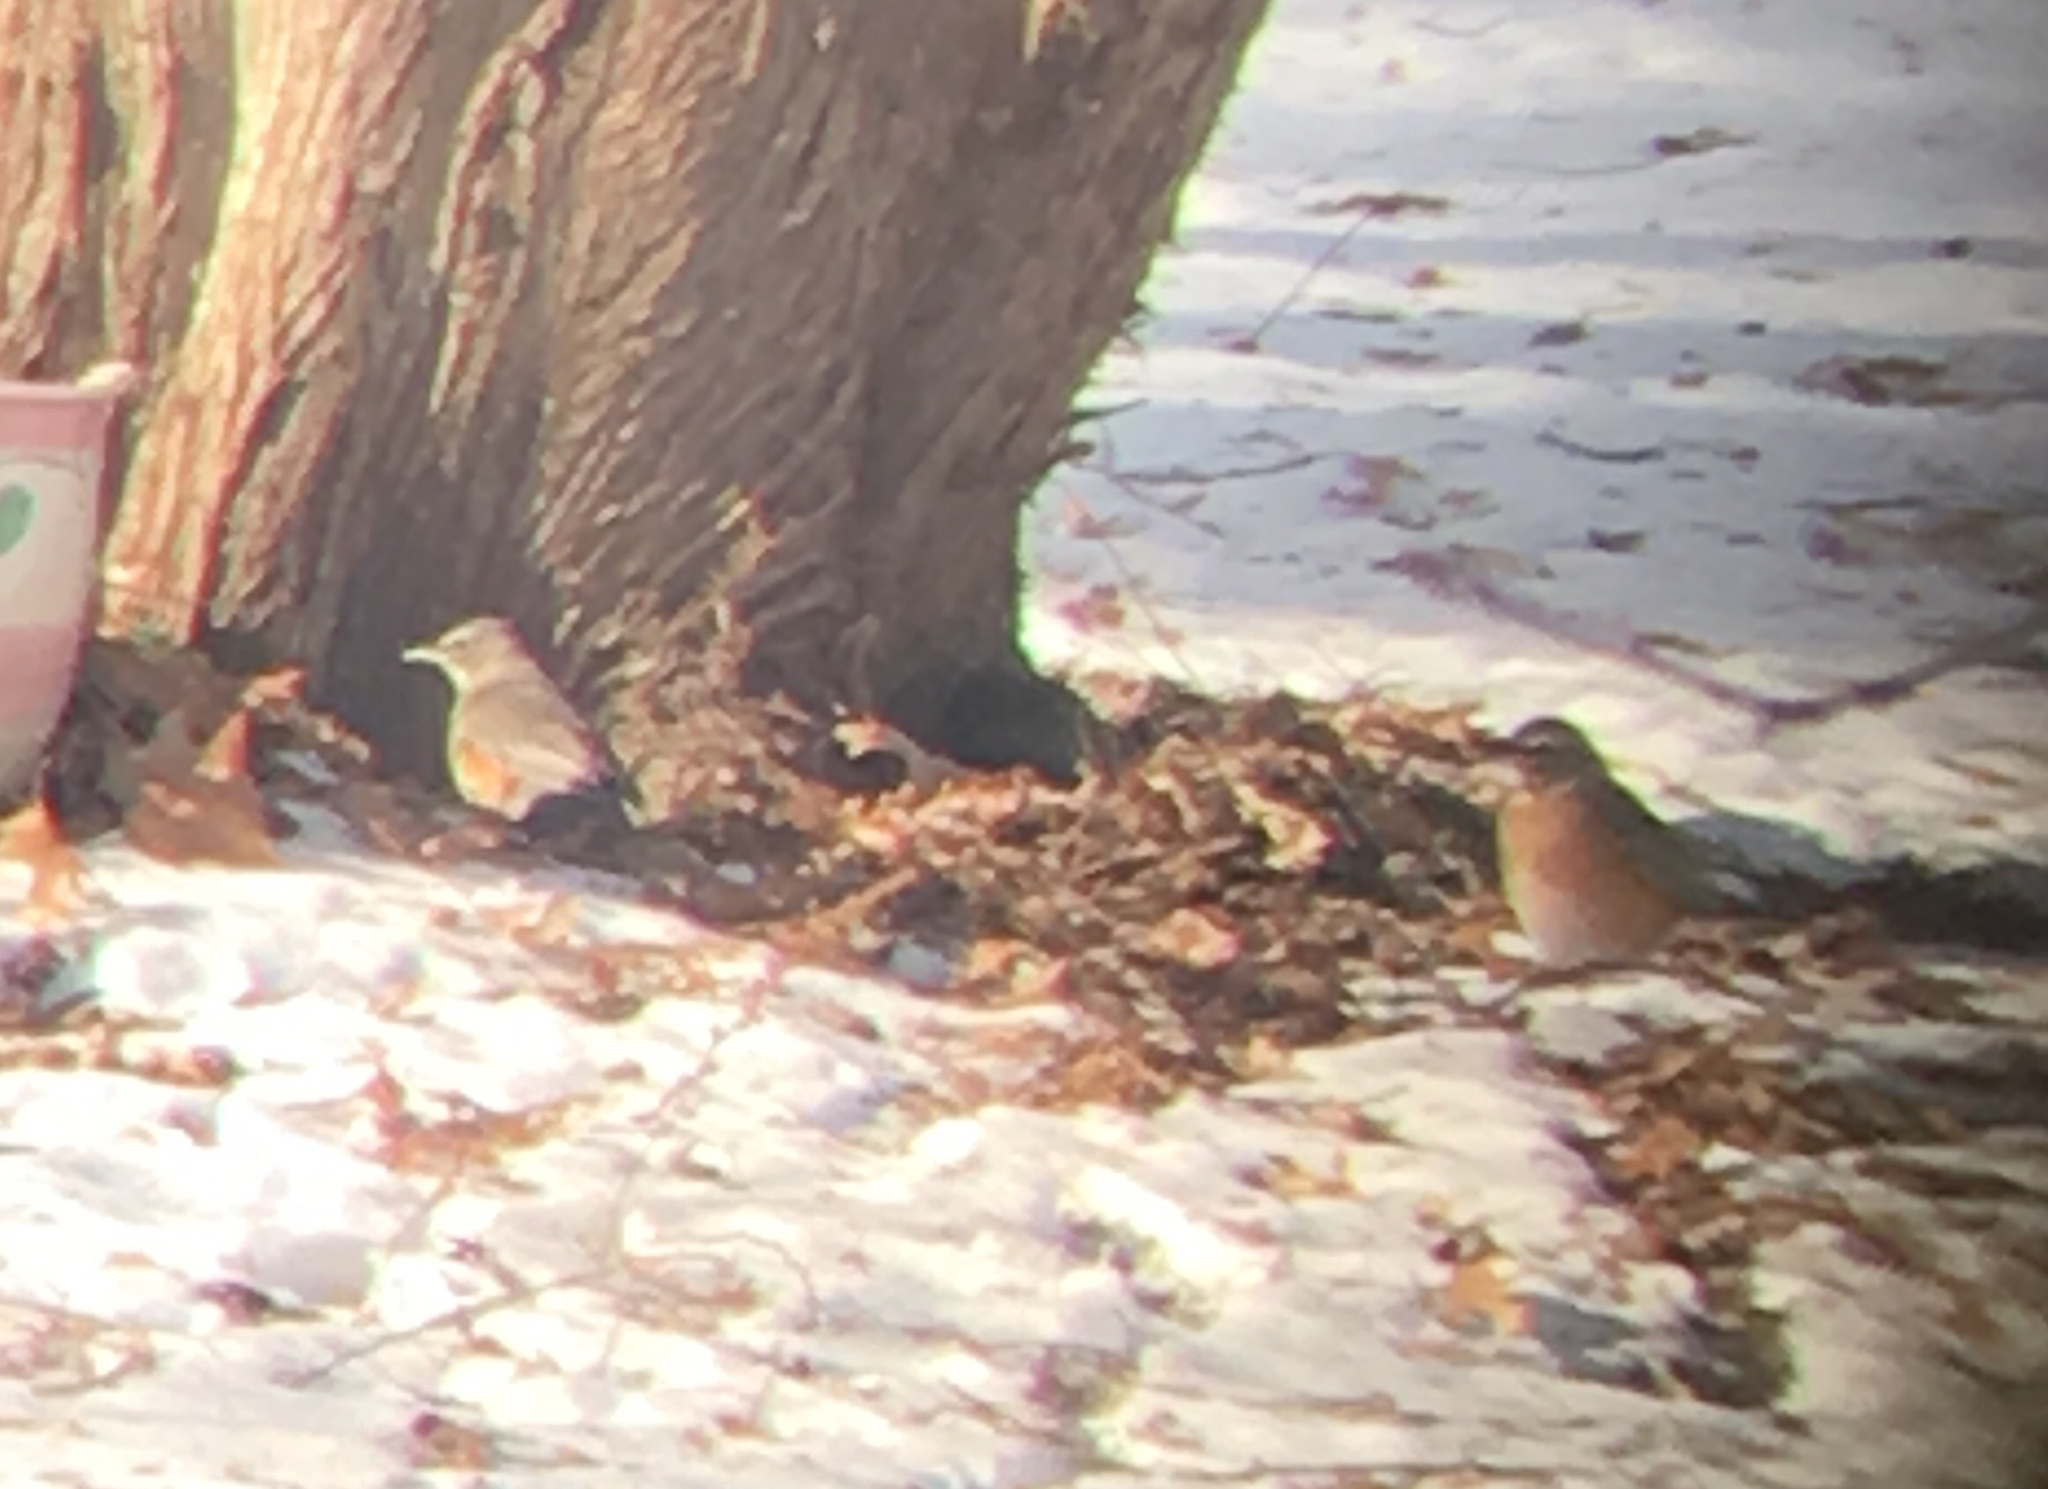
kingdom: Animalia
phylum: Chordata
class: Aves
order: Passeriformes
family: Turdidae
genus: Turdus
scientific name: Turdus migratorius
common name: American robin
